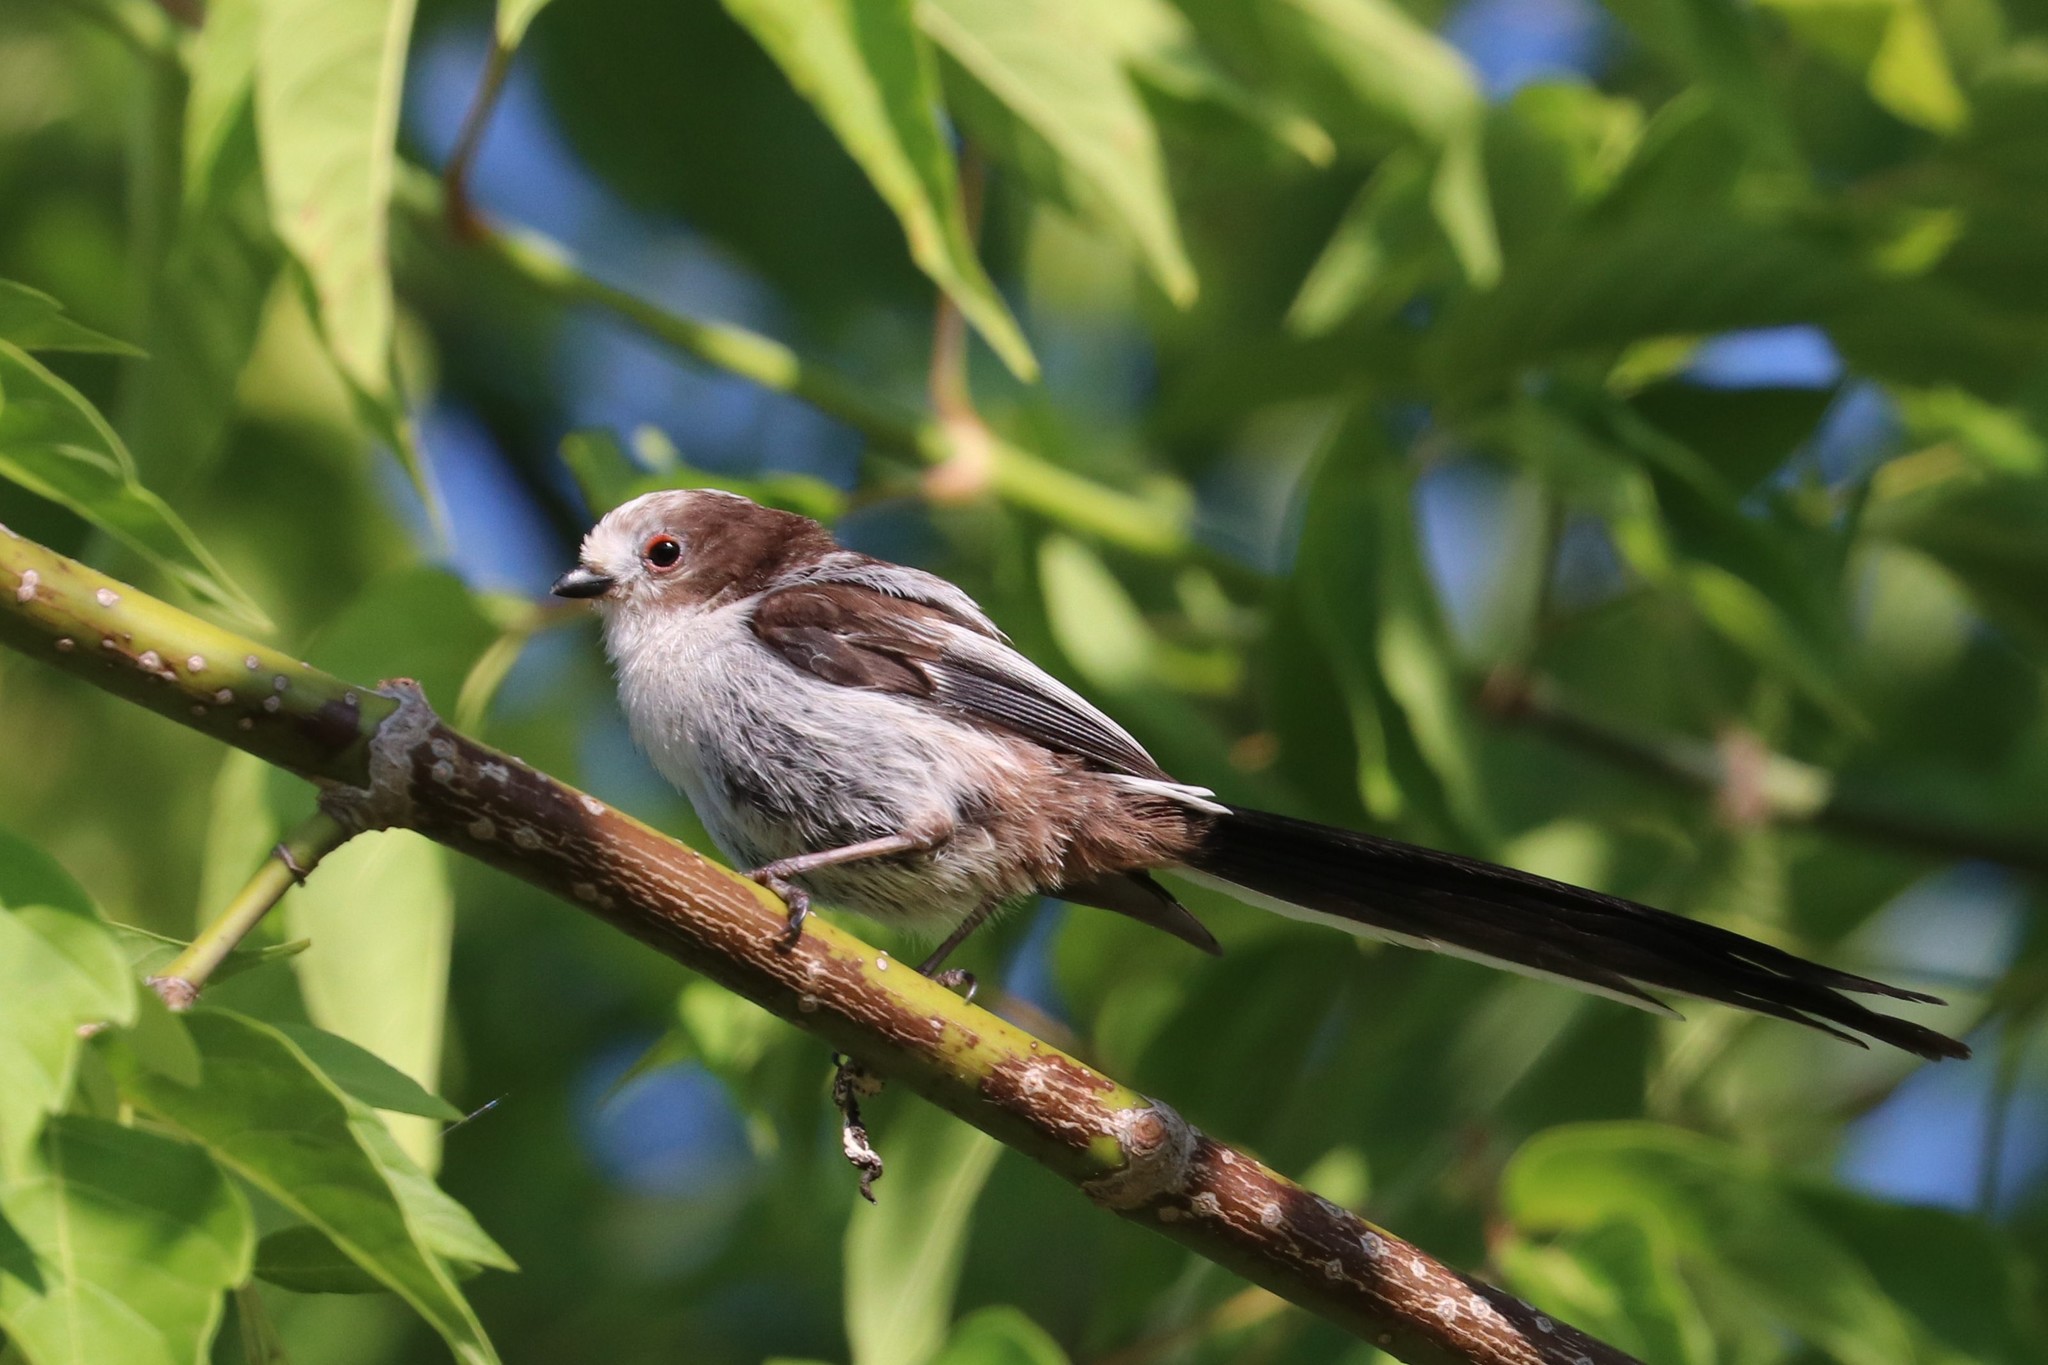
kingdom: Animalia
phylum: Chordata
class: Aves
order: Passeriformes
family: Aegithalidae
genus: Aegithalos
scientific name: Aegithalos caudatus
